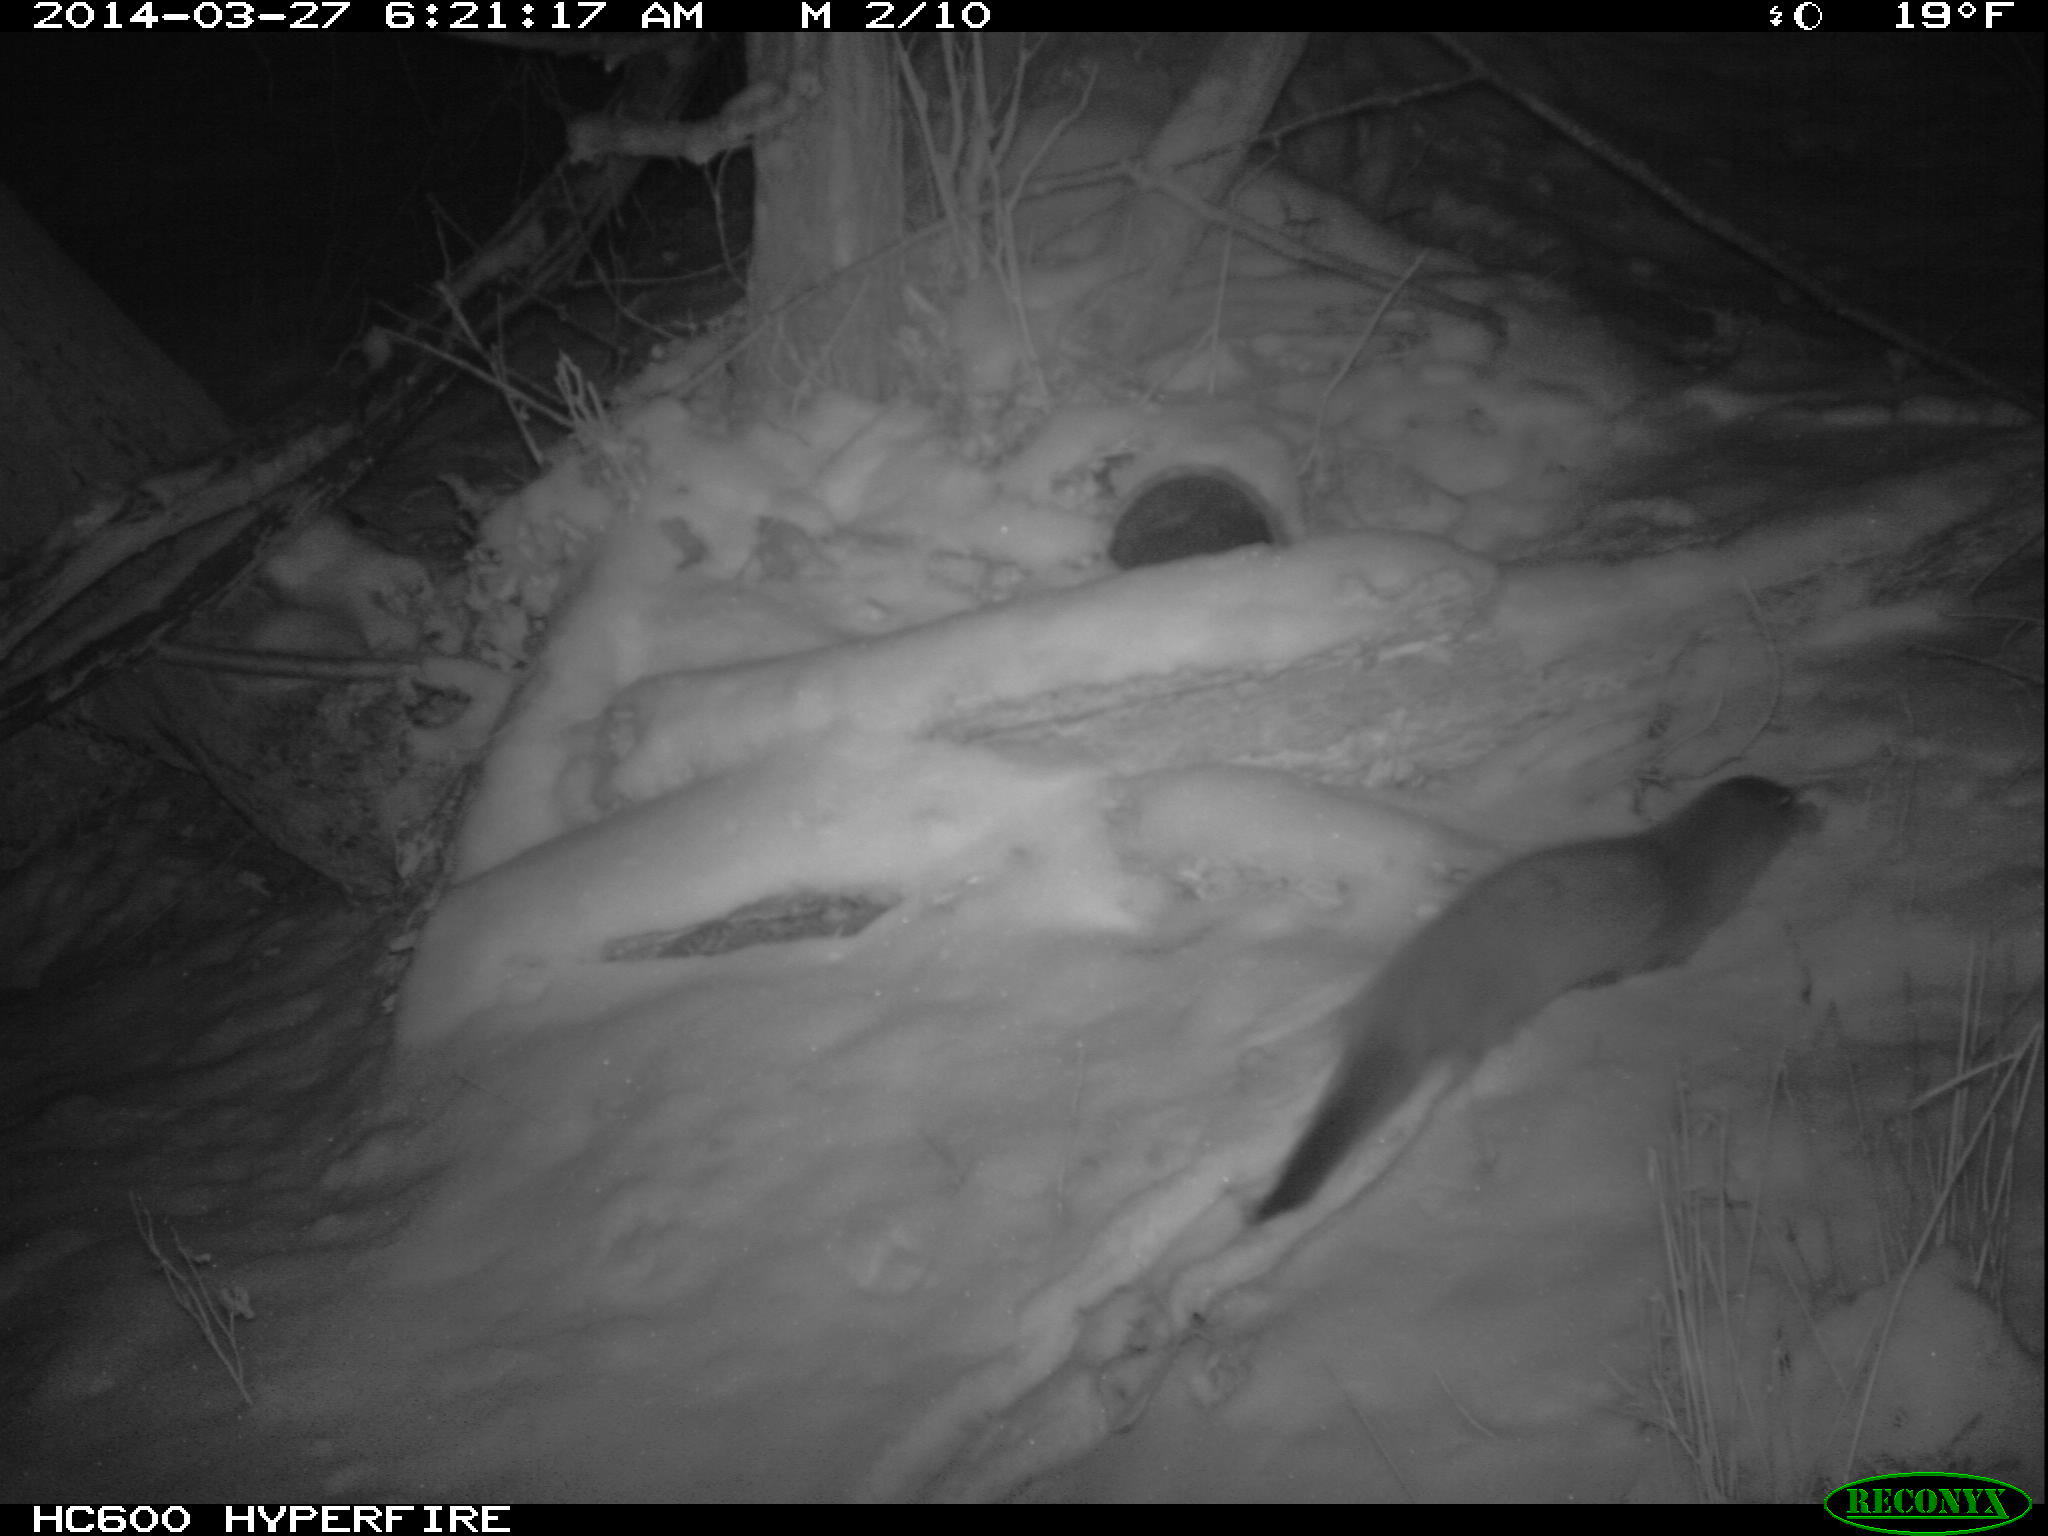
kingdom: Animalia
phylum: Chordata
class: Mammalia
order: Carnivora
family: Mustelidae
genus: Mustela
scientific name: Mustela
